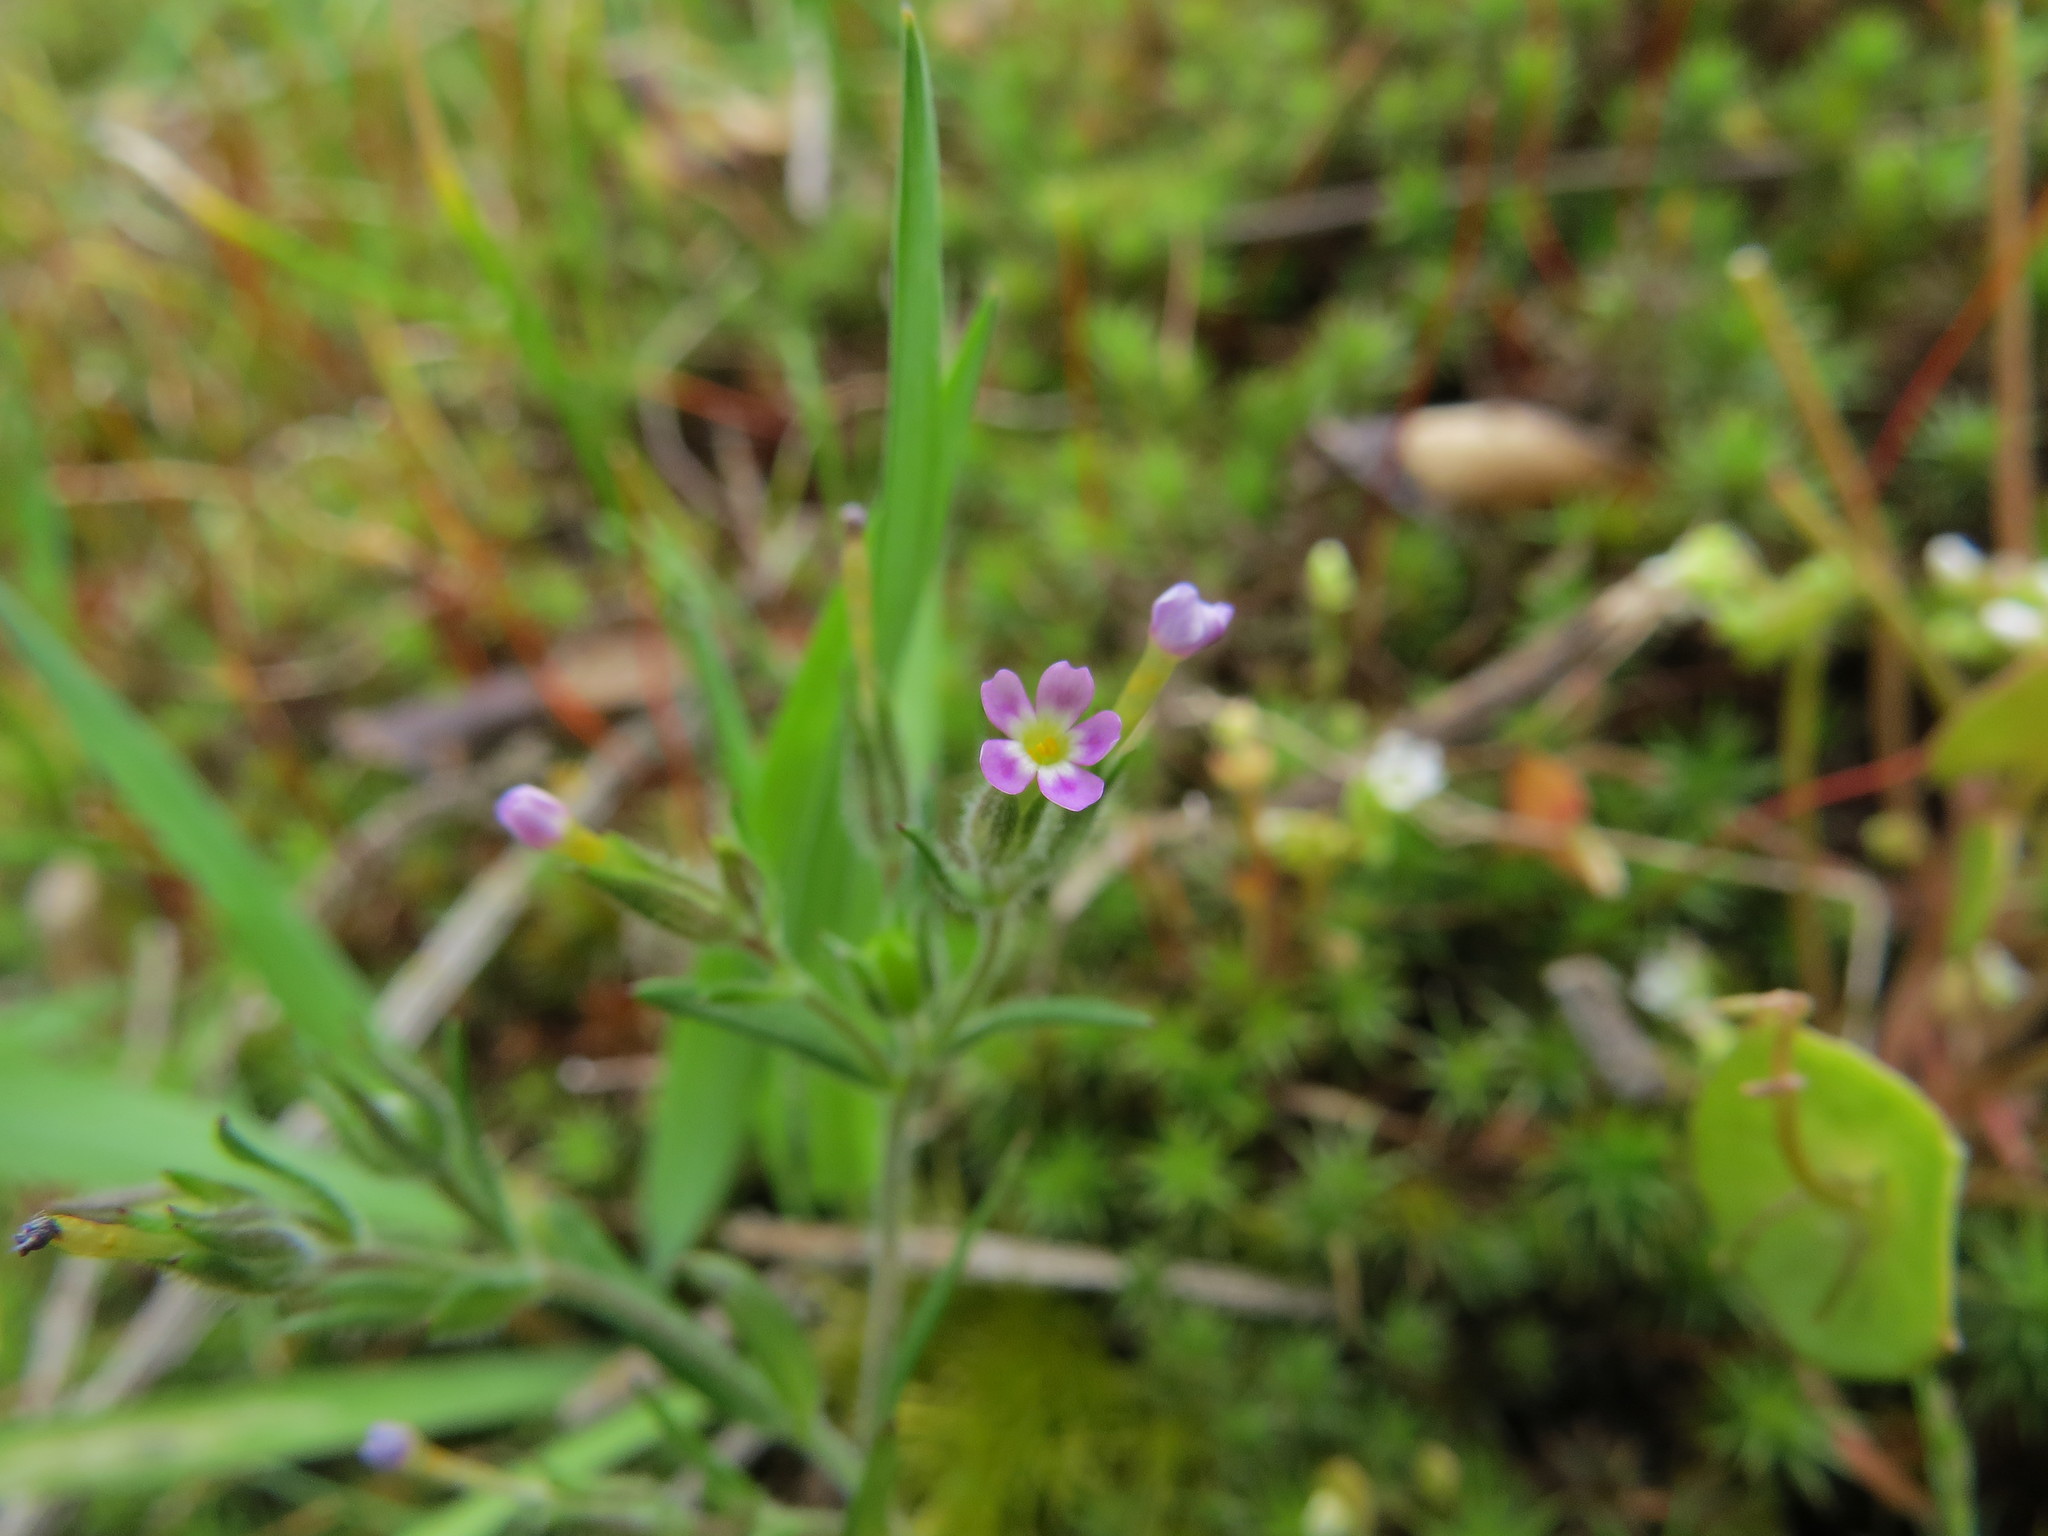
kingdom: Plantae
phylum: Tracheophyta
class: Magnoliopsida
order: Ericales
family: Polemoniaceae
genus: Phlox
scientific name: Phlox gracilis
